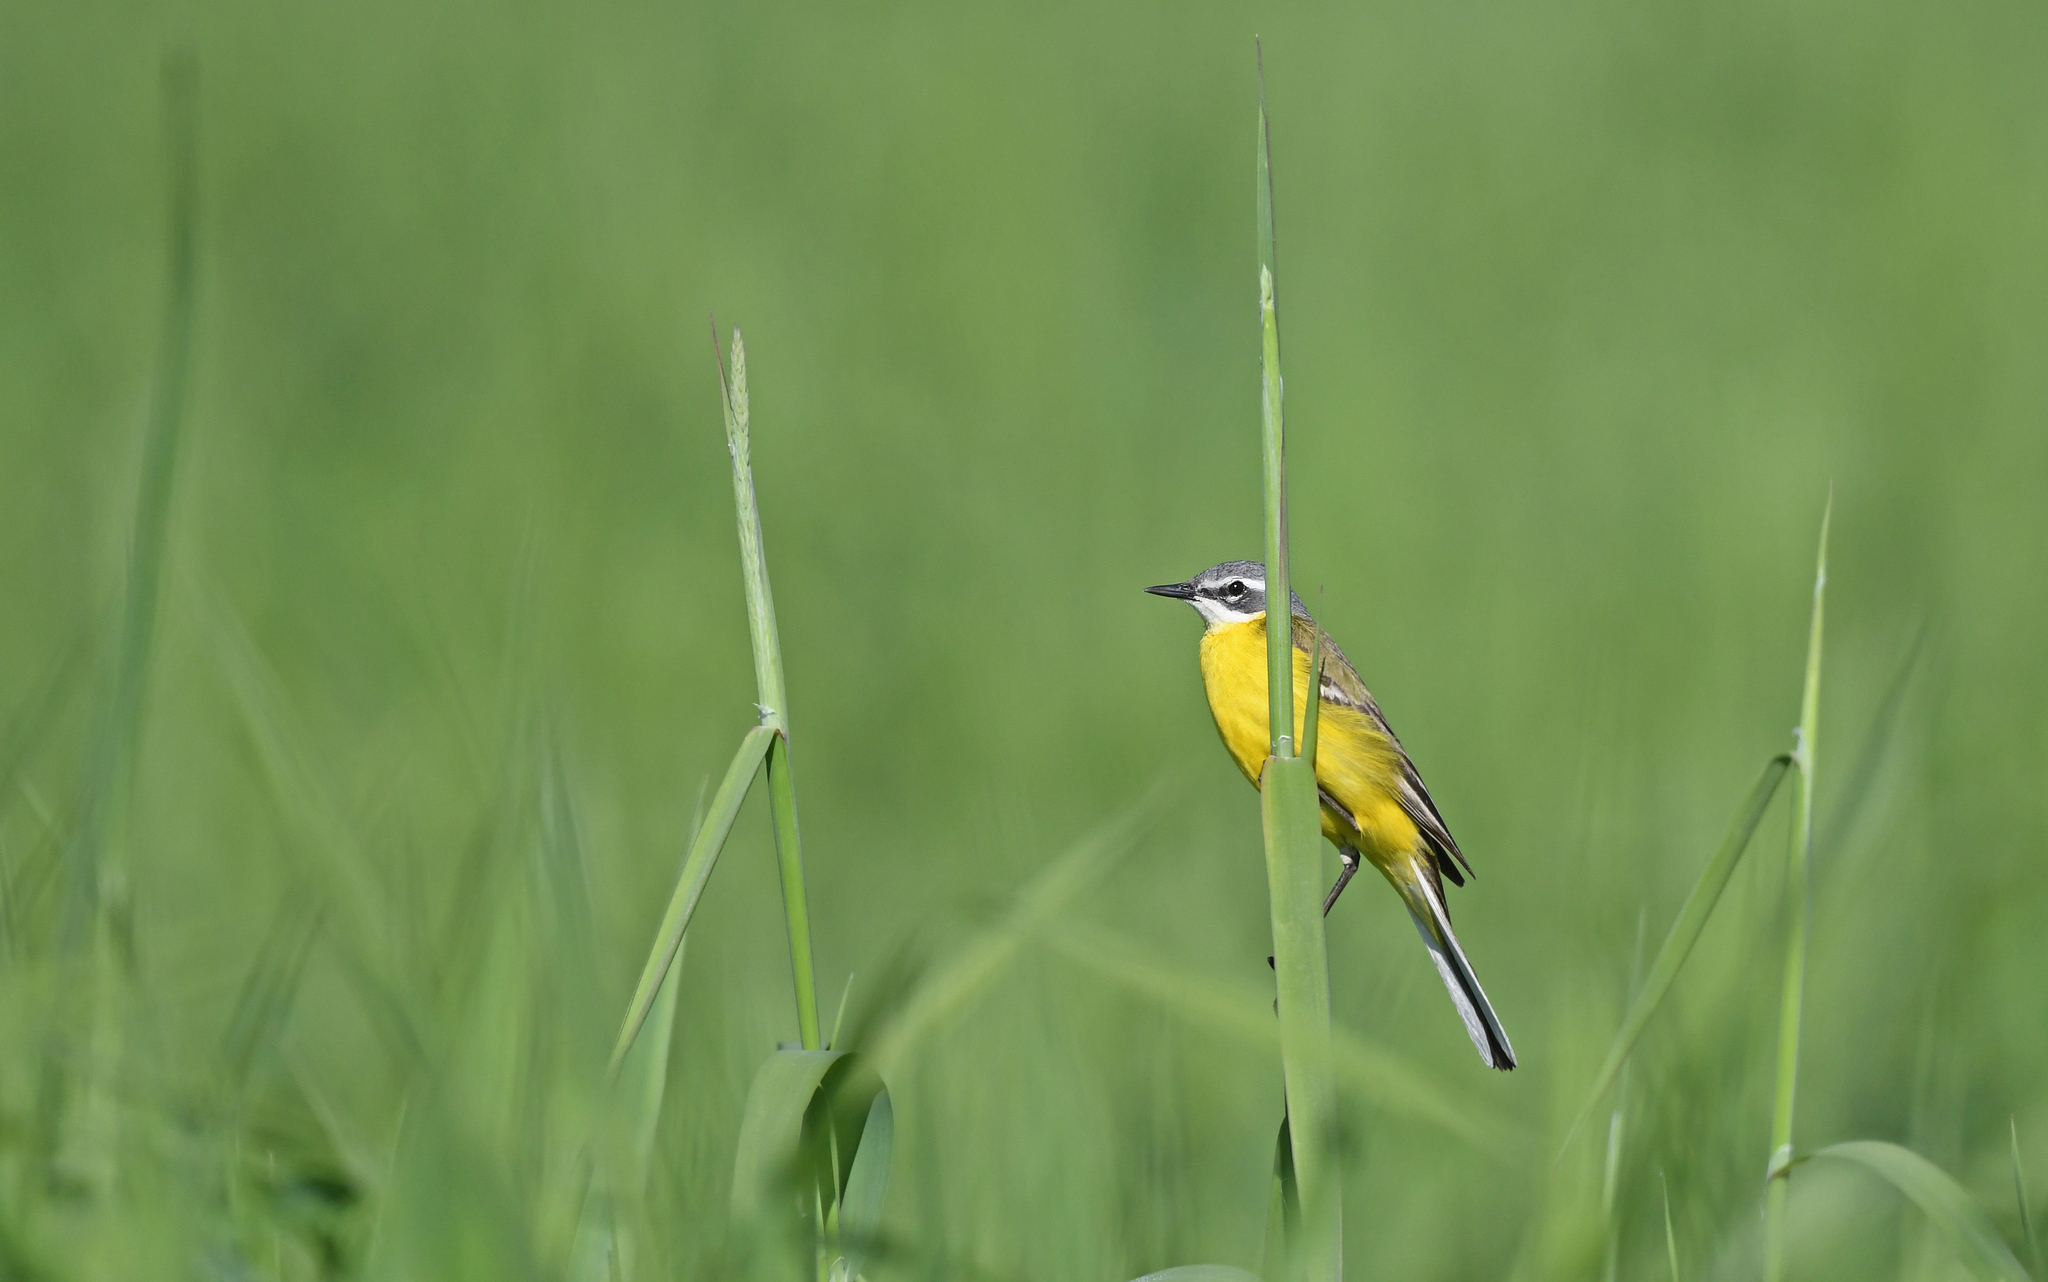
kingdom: Animalia
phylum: Chordata
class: Aves
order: Passeriformes
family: Motacillidae
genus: Motacilla
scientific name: Motacilla flava
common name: Western yellow wagtail
